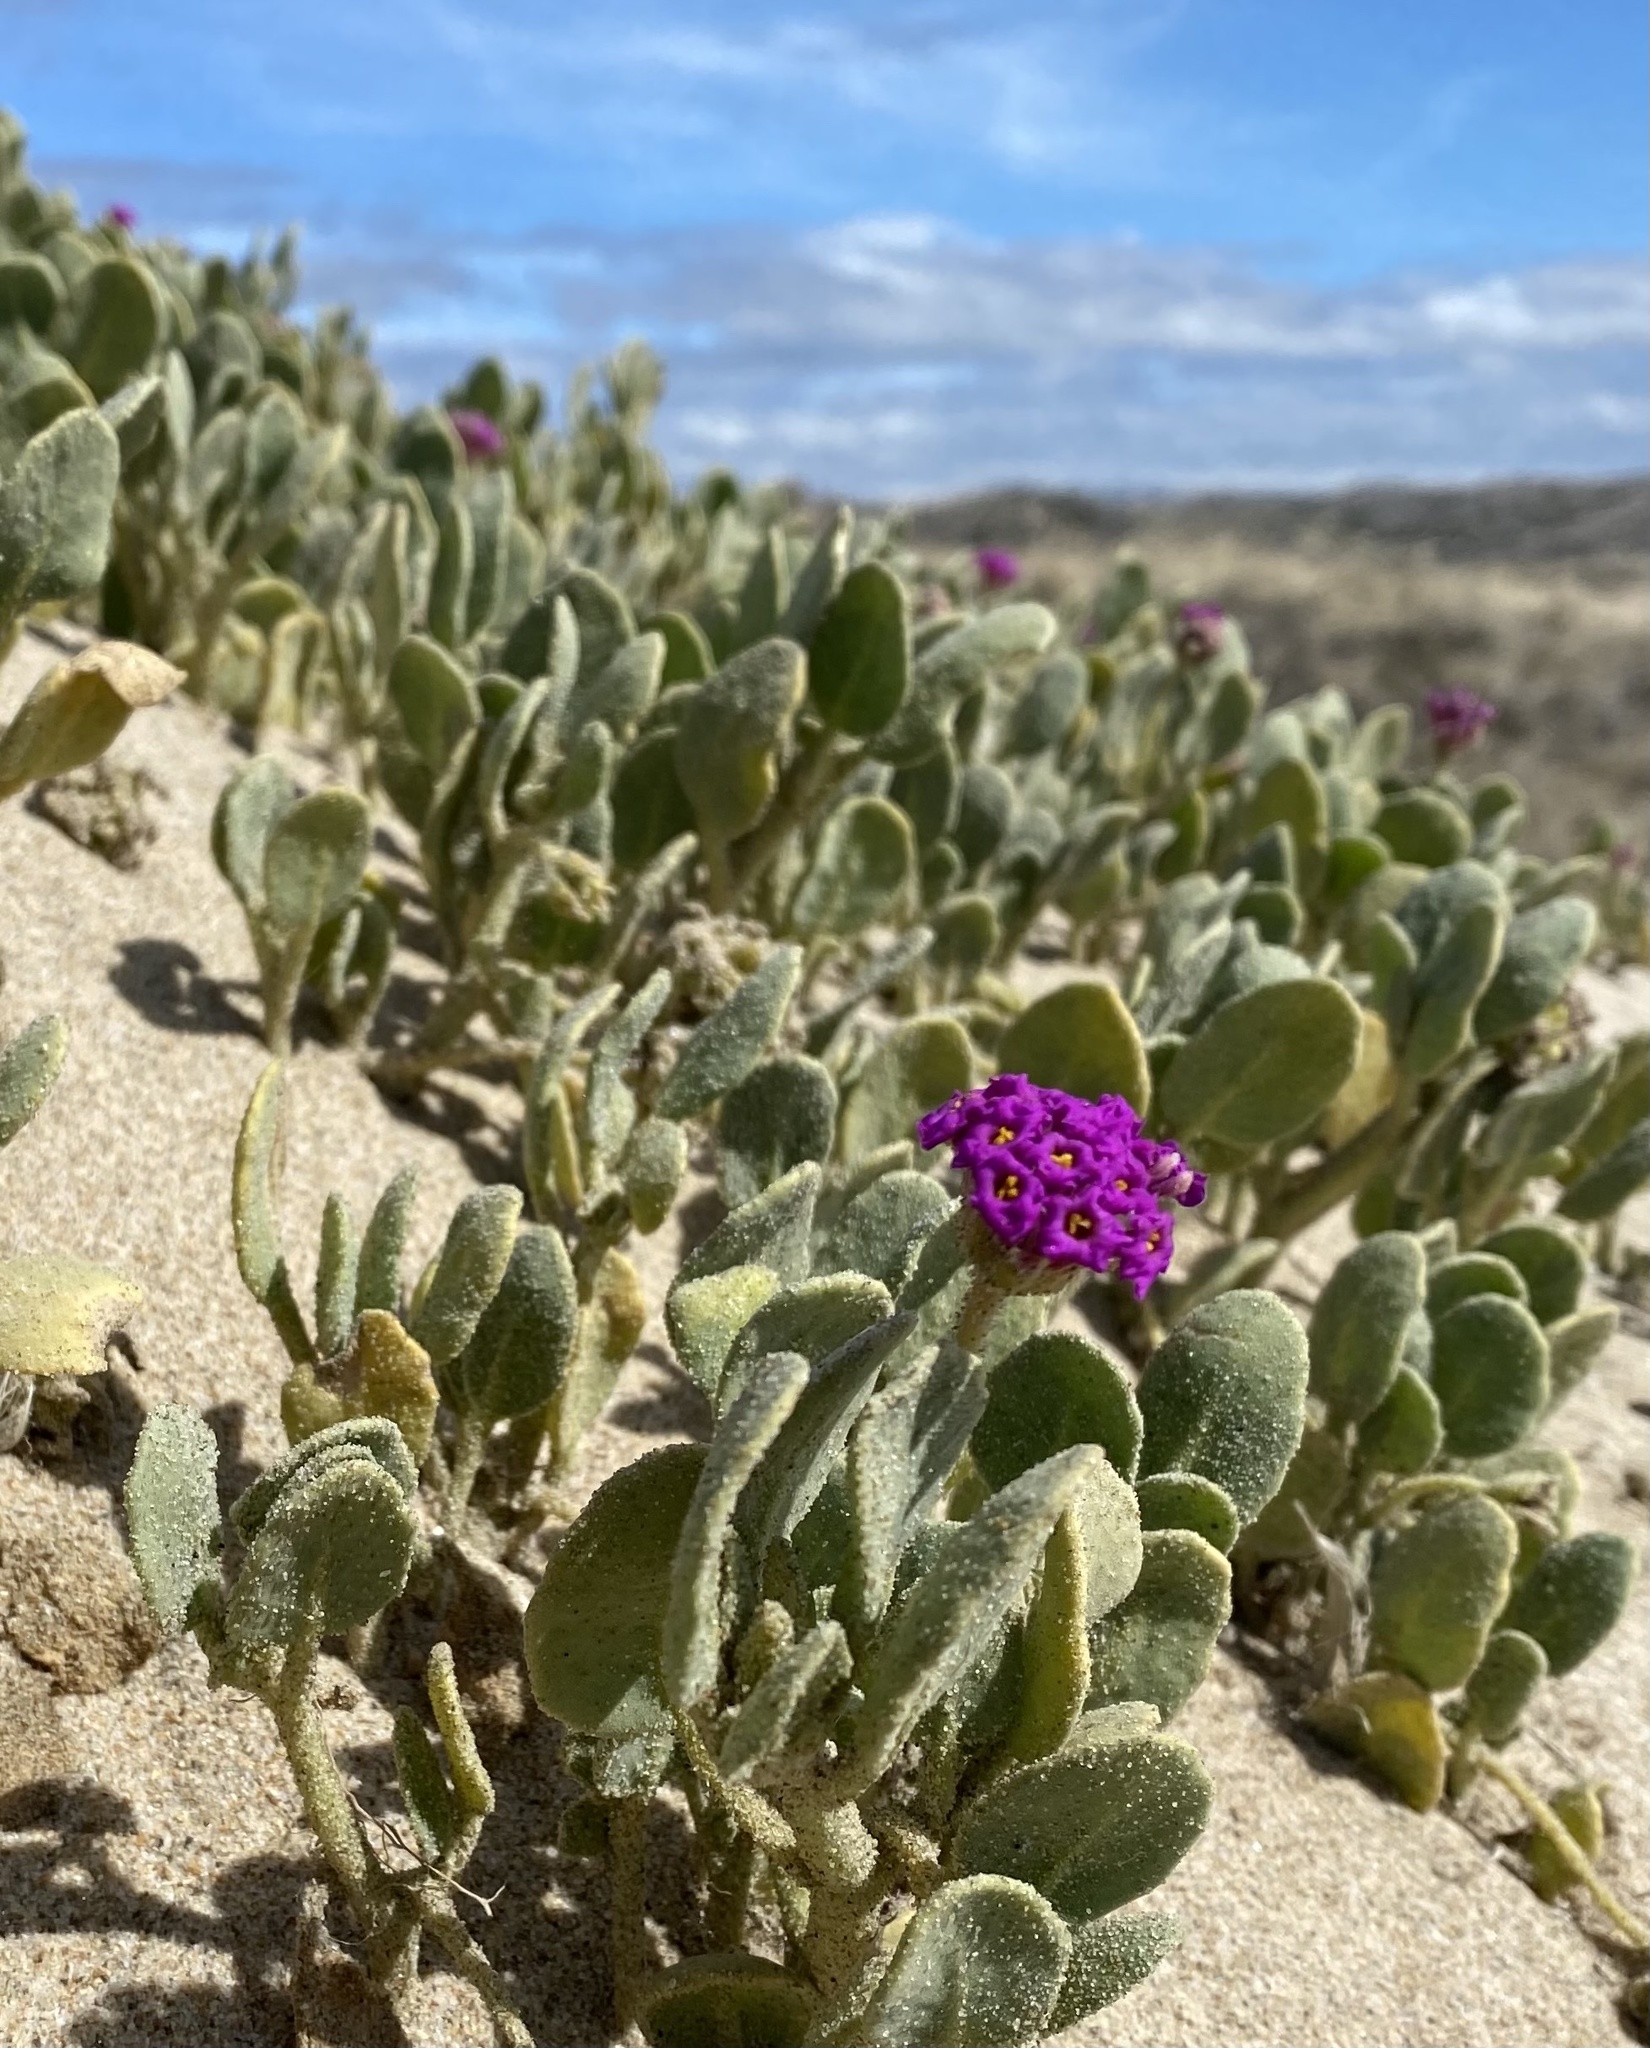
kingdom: Plantae
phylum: Tracheophyta
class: Magnoliopsida
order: Caryophyllales
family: Nyctaginaceae
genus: Abronia
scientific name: Abronia maritima
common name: Red sand-verbena
